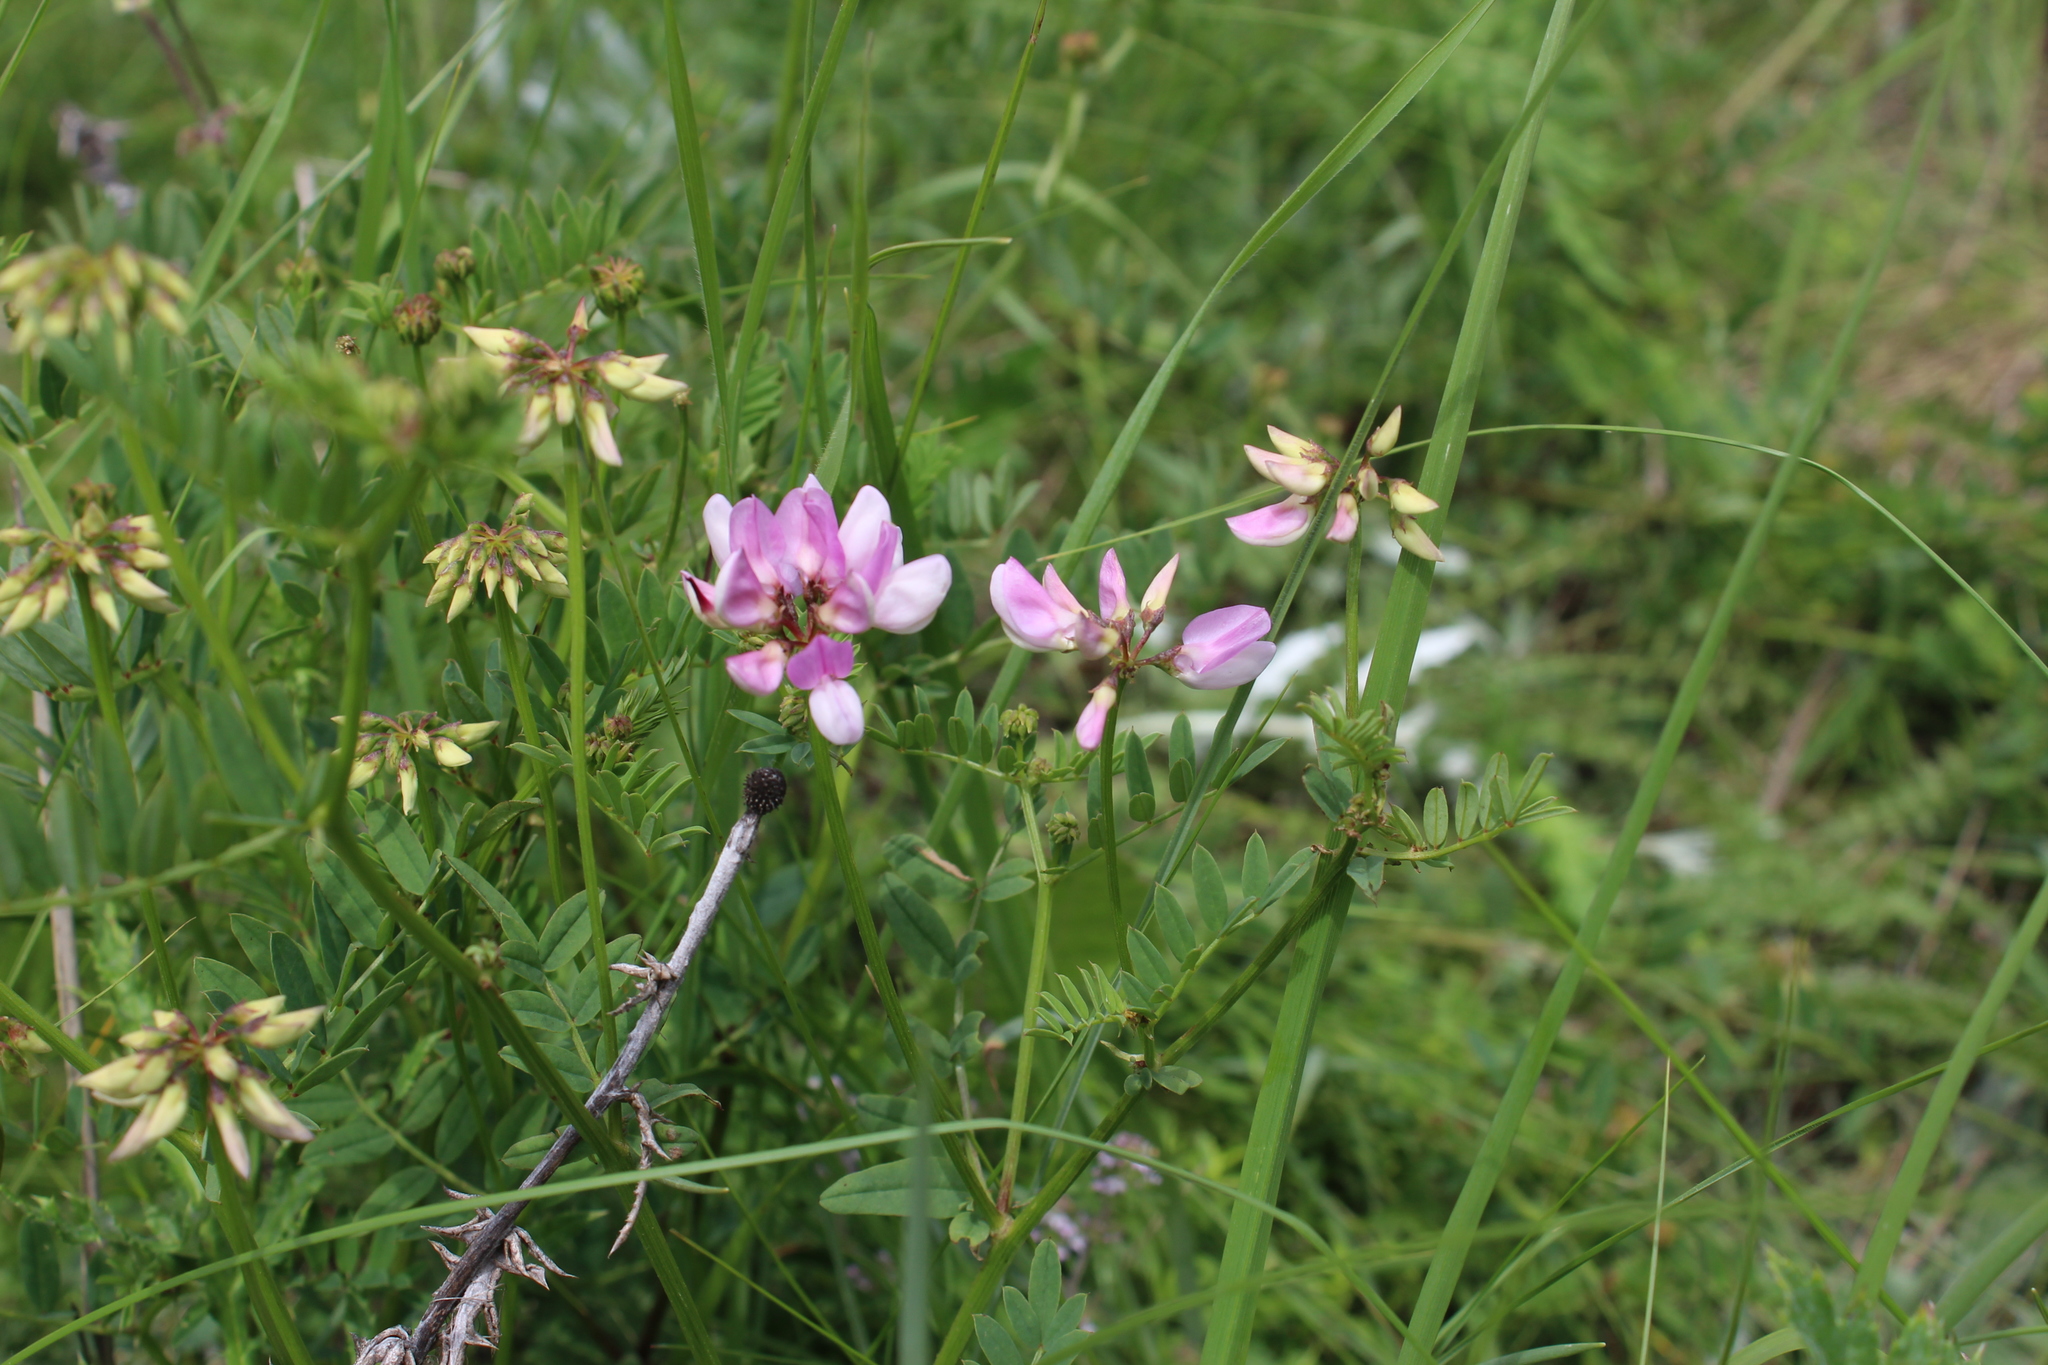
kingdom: Plantae
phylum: Tracheophyta
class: Magnoliopsida
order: Fabales
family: Fabaceae
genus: Coronilla
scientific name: Coronilla varia
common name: Crownvetch
